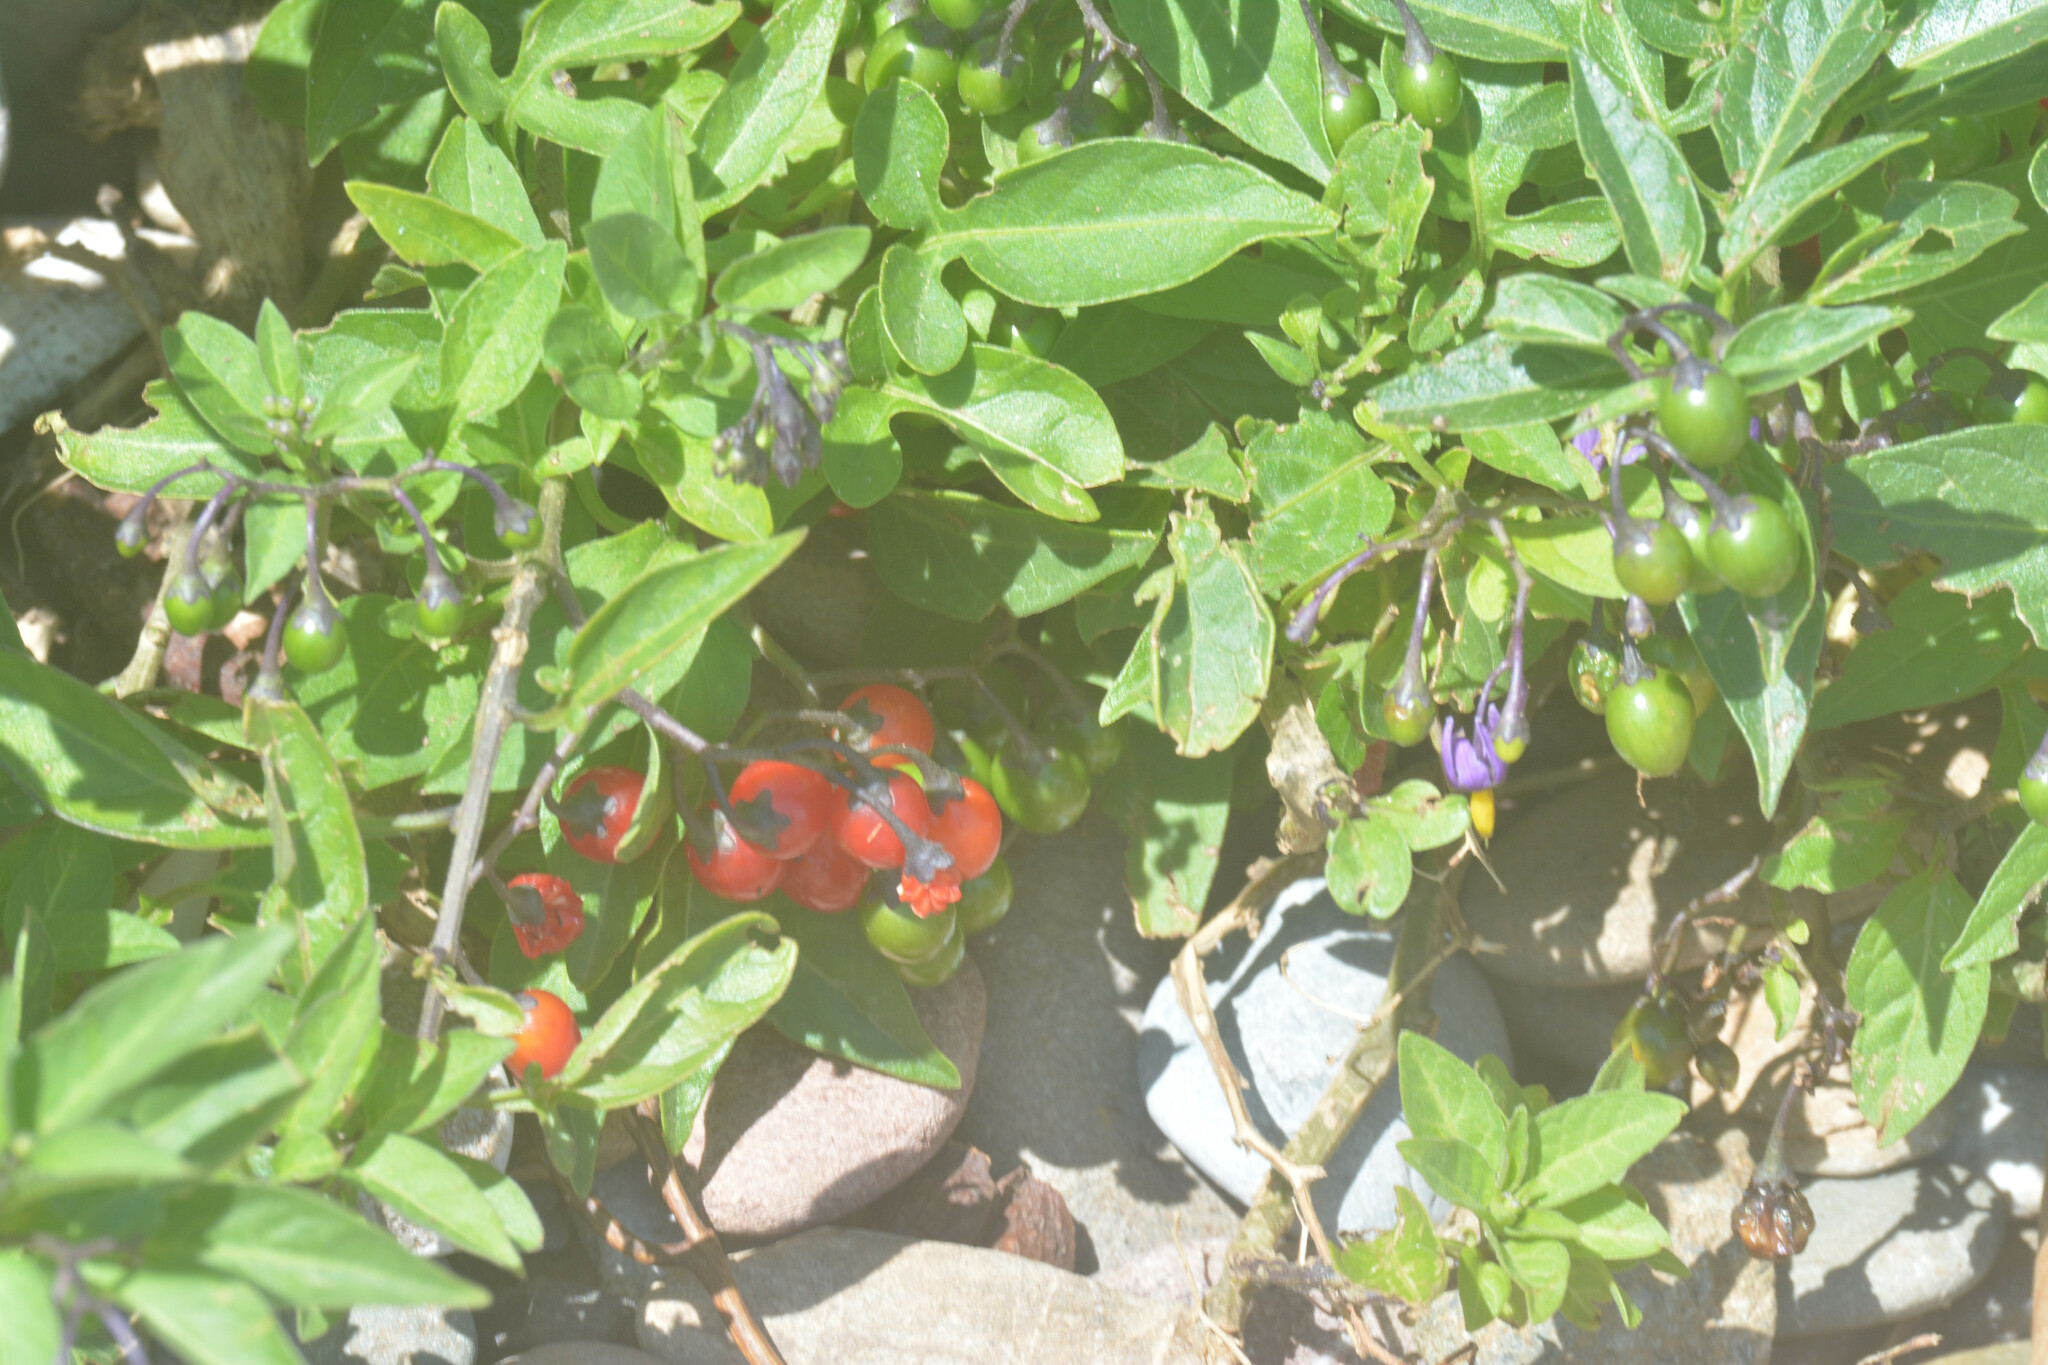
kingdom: Plantae
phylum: Tracheophyta
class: Magnoliopsida
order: Solanales
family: Solanaceae
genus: Solanum
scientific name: Solanum dulcamara
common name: Climbing nightshade
